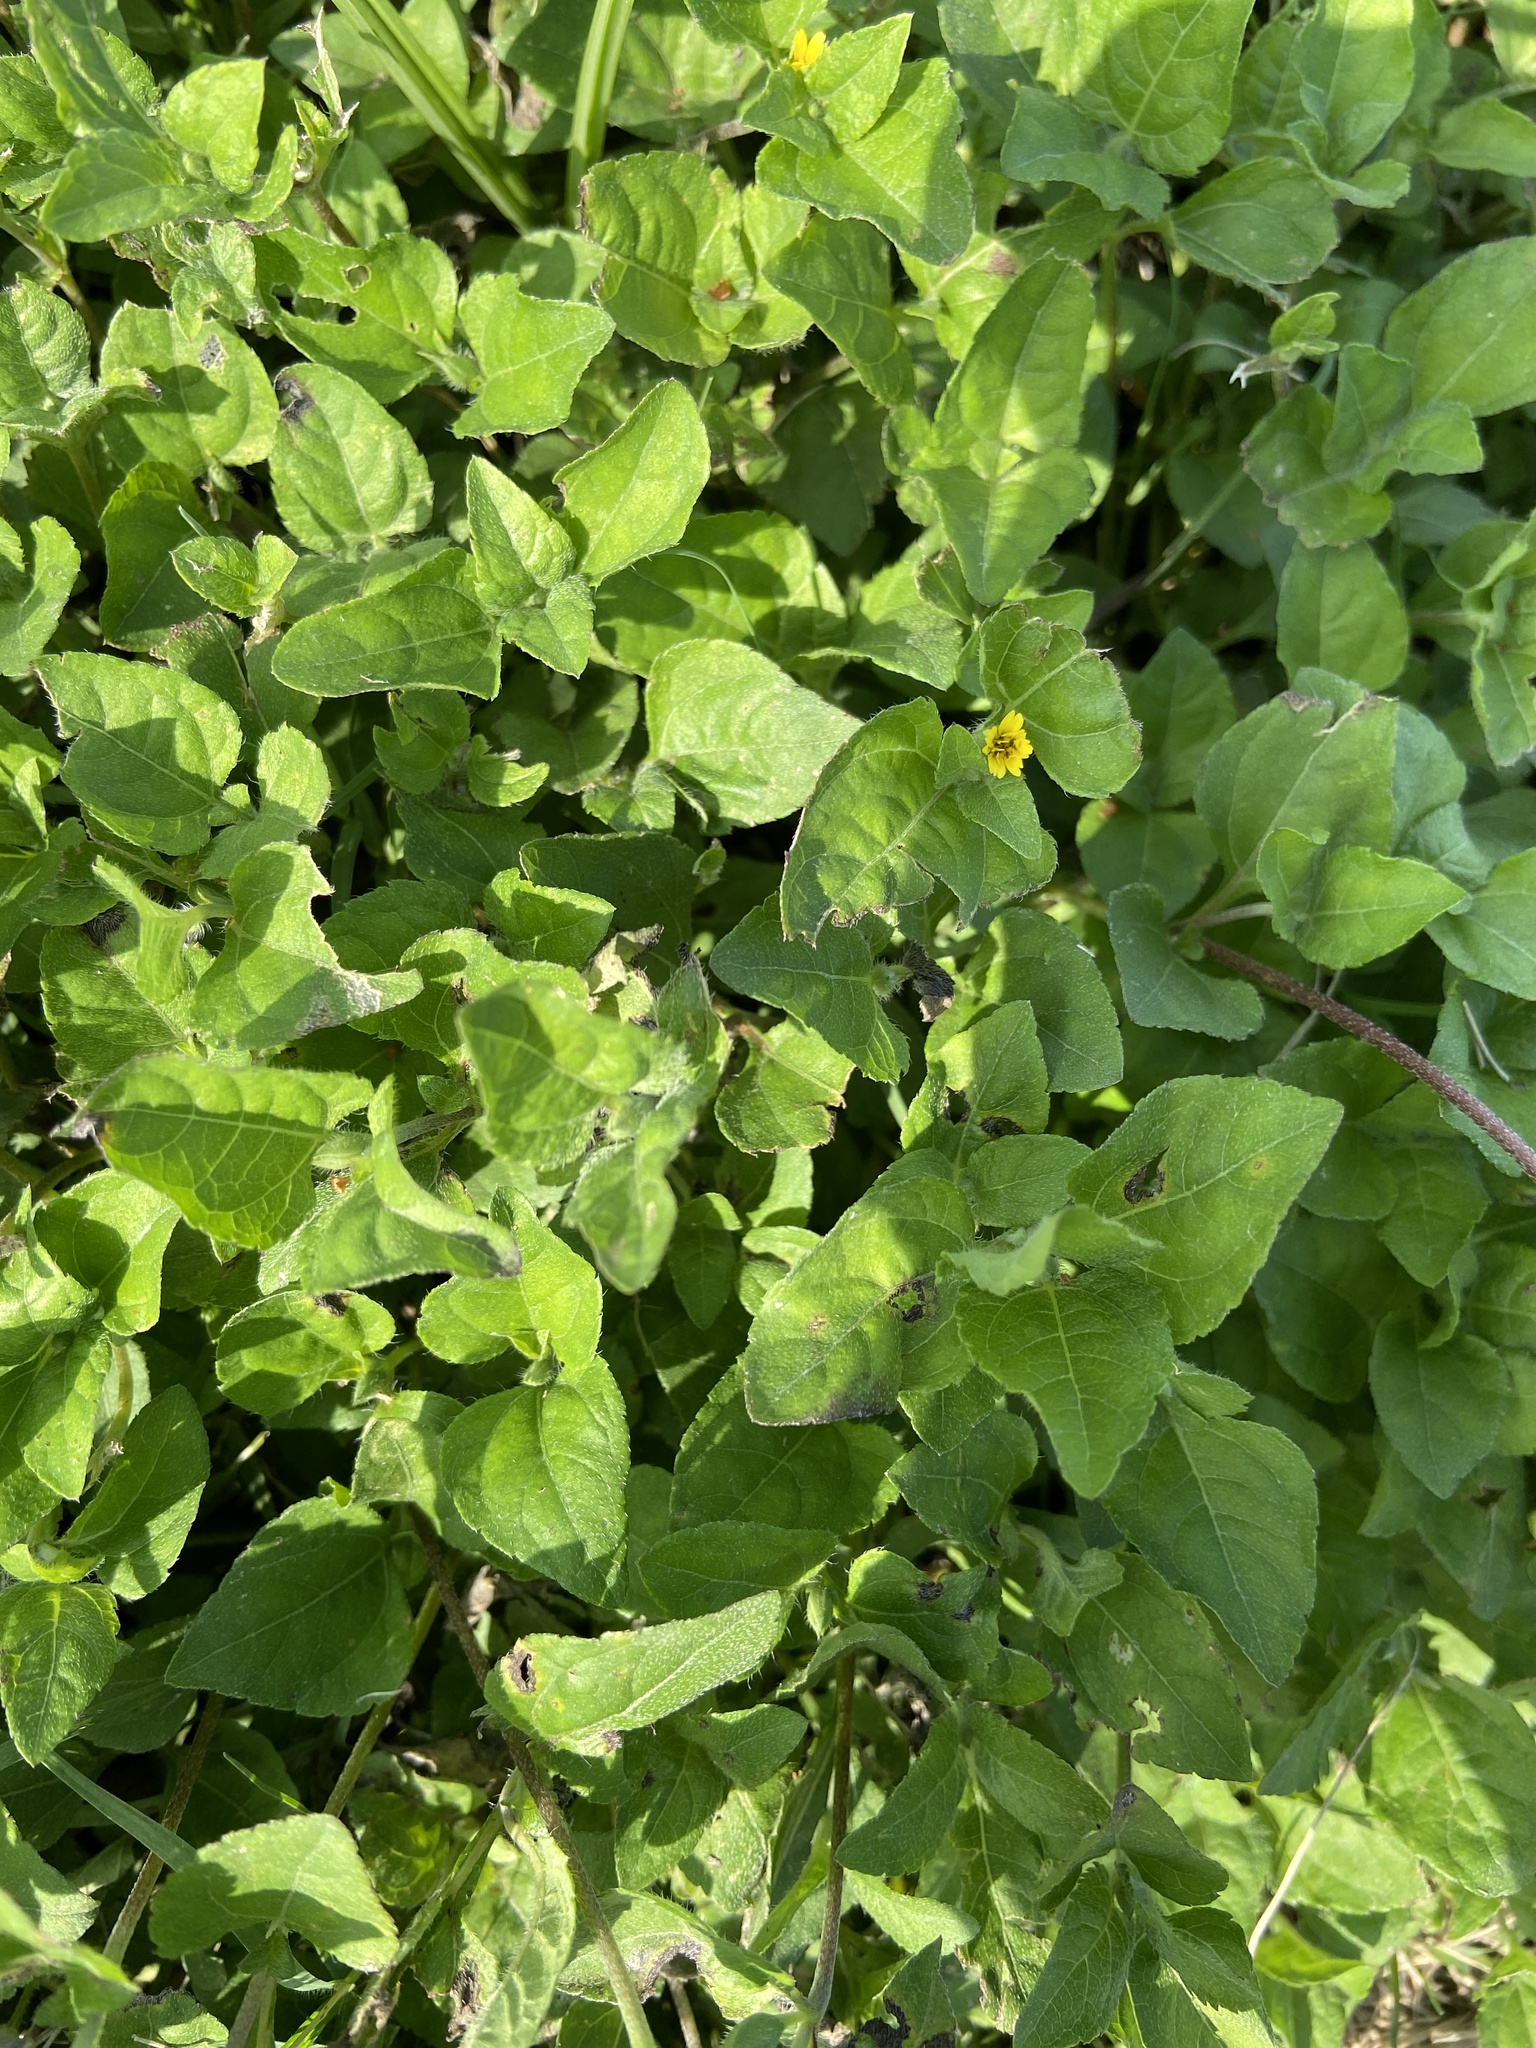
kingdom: Plantae
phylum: Tracheophyta
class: Magnoliopsida
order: Asterales
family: Asteraceae
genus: Calyptocarpus
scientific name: Calyptocarpus vialis
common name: Straggler daisy
